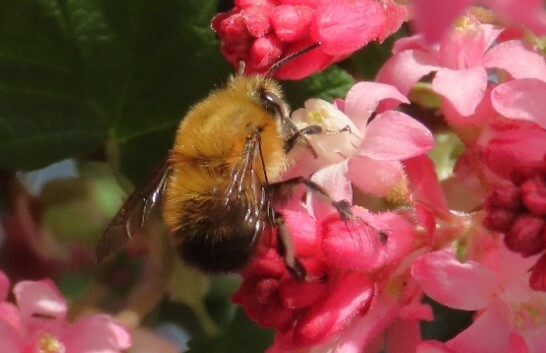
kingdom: Animalia
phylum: Arthropoda
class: Insecta
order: Hymenoptera
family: Apidae
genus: Anthophora
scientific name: Anthophora plumipes
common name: Hairy-footed flower bee
